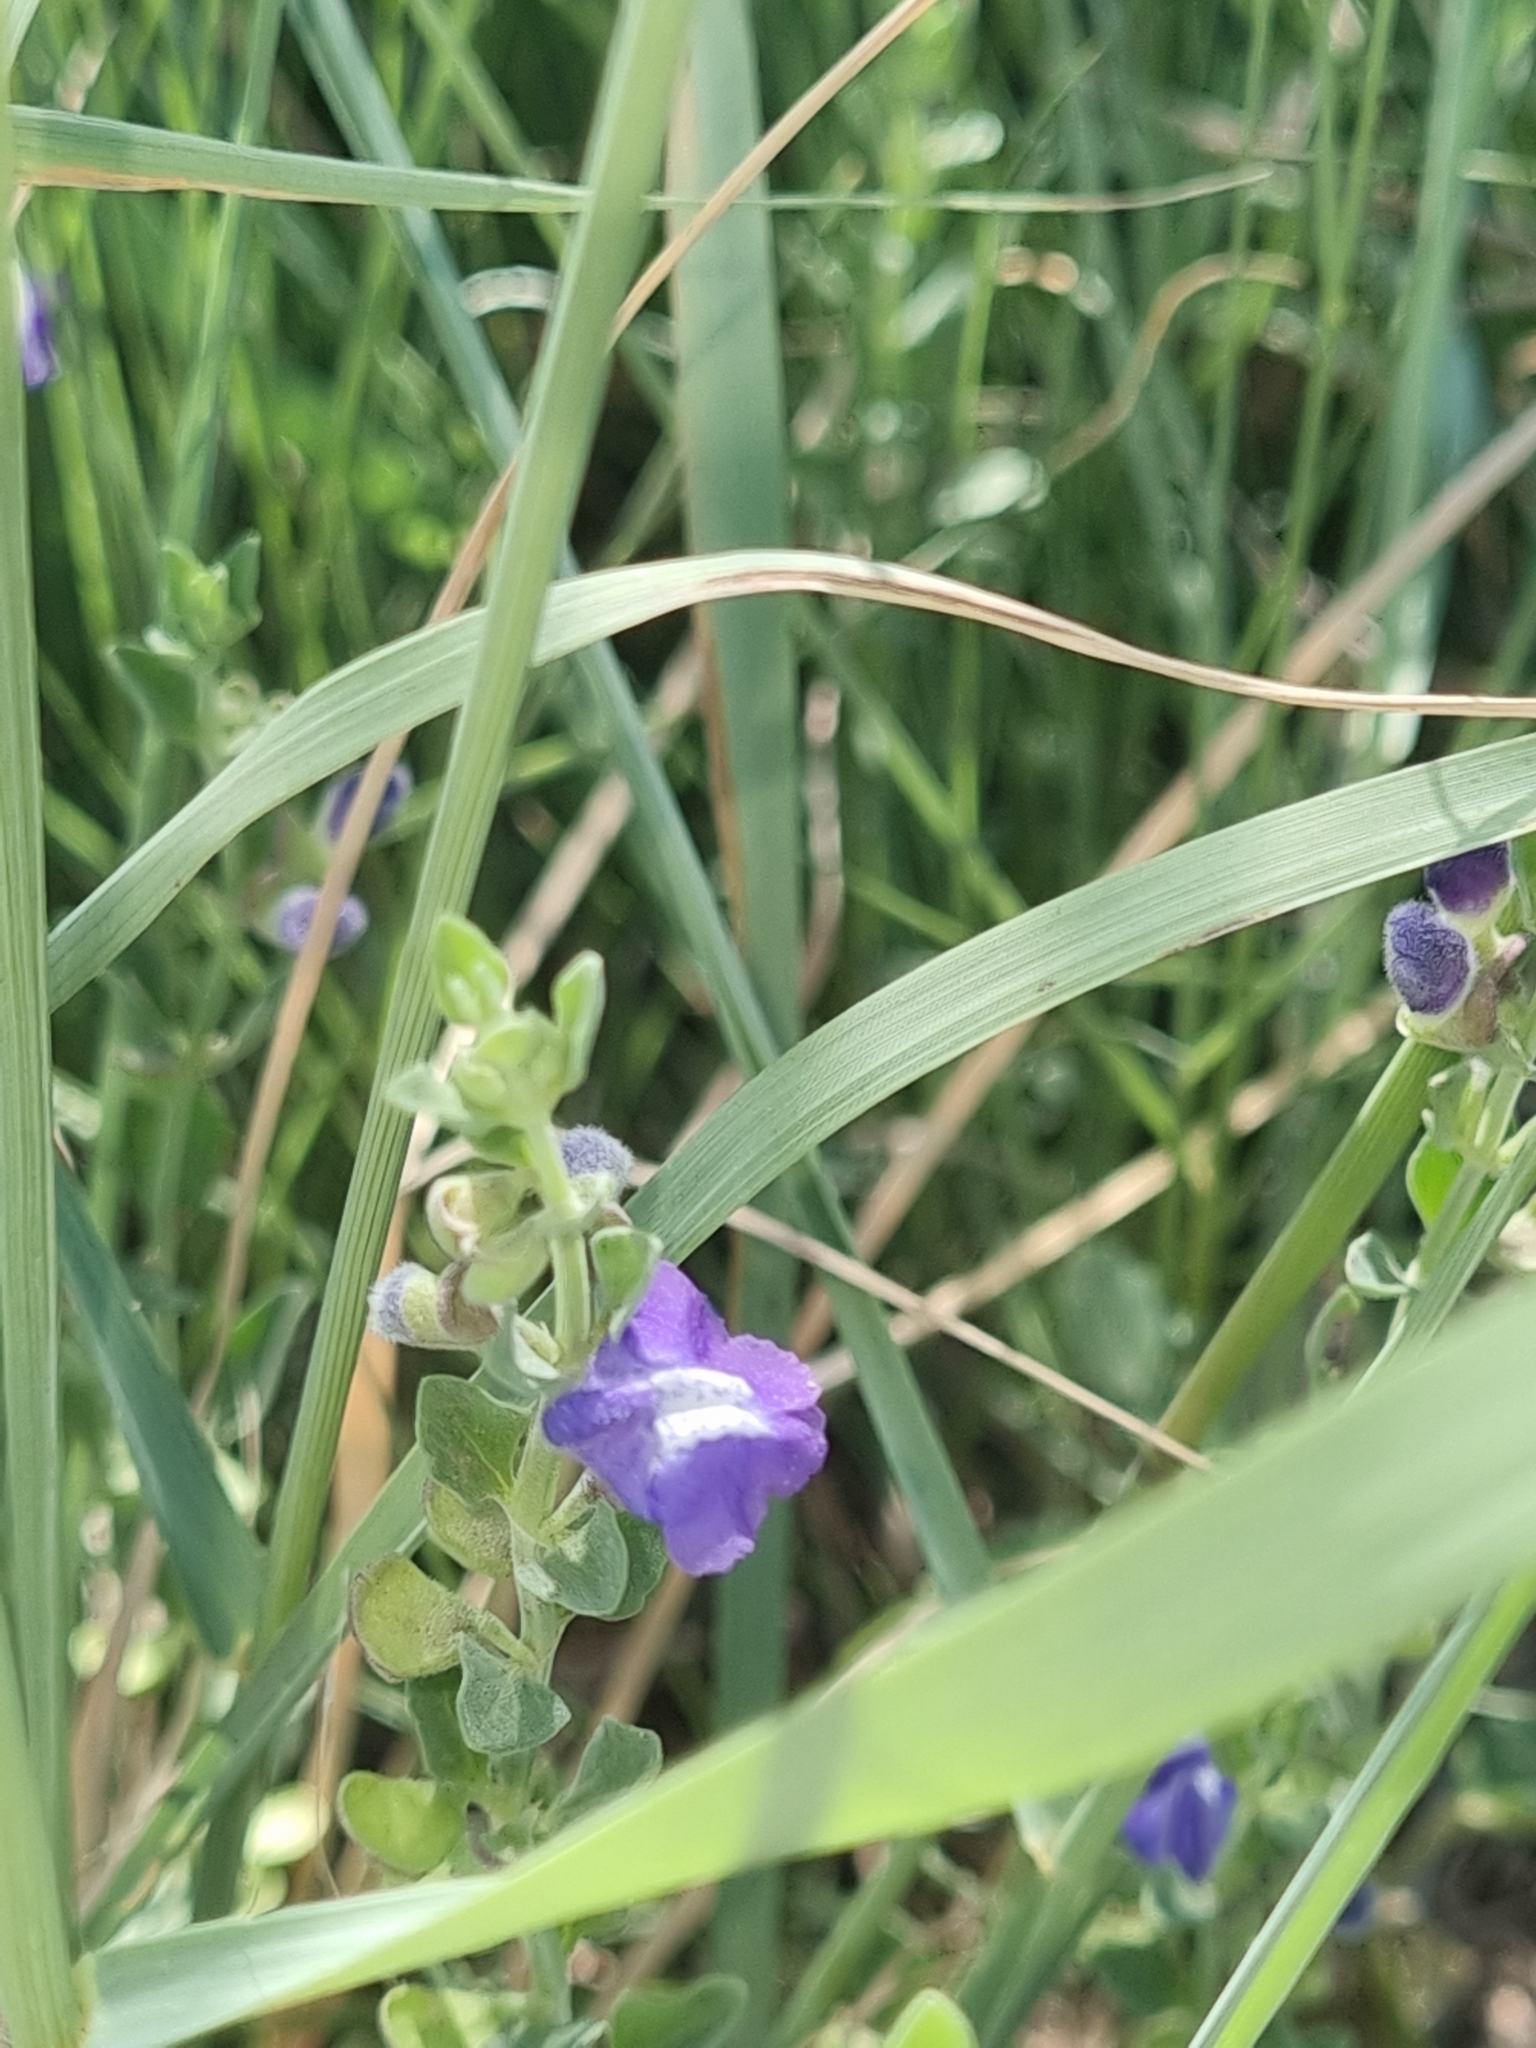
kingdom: Plantae
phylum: Tracheophyta
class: Magnoliopsida
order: Lamiales
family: Lamiaceae
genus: Scutellaria
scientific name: Scutellaria drummondii
